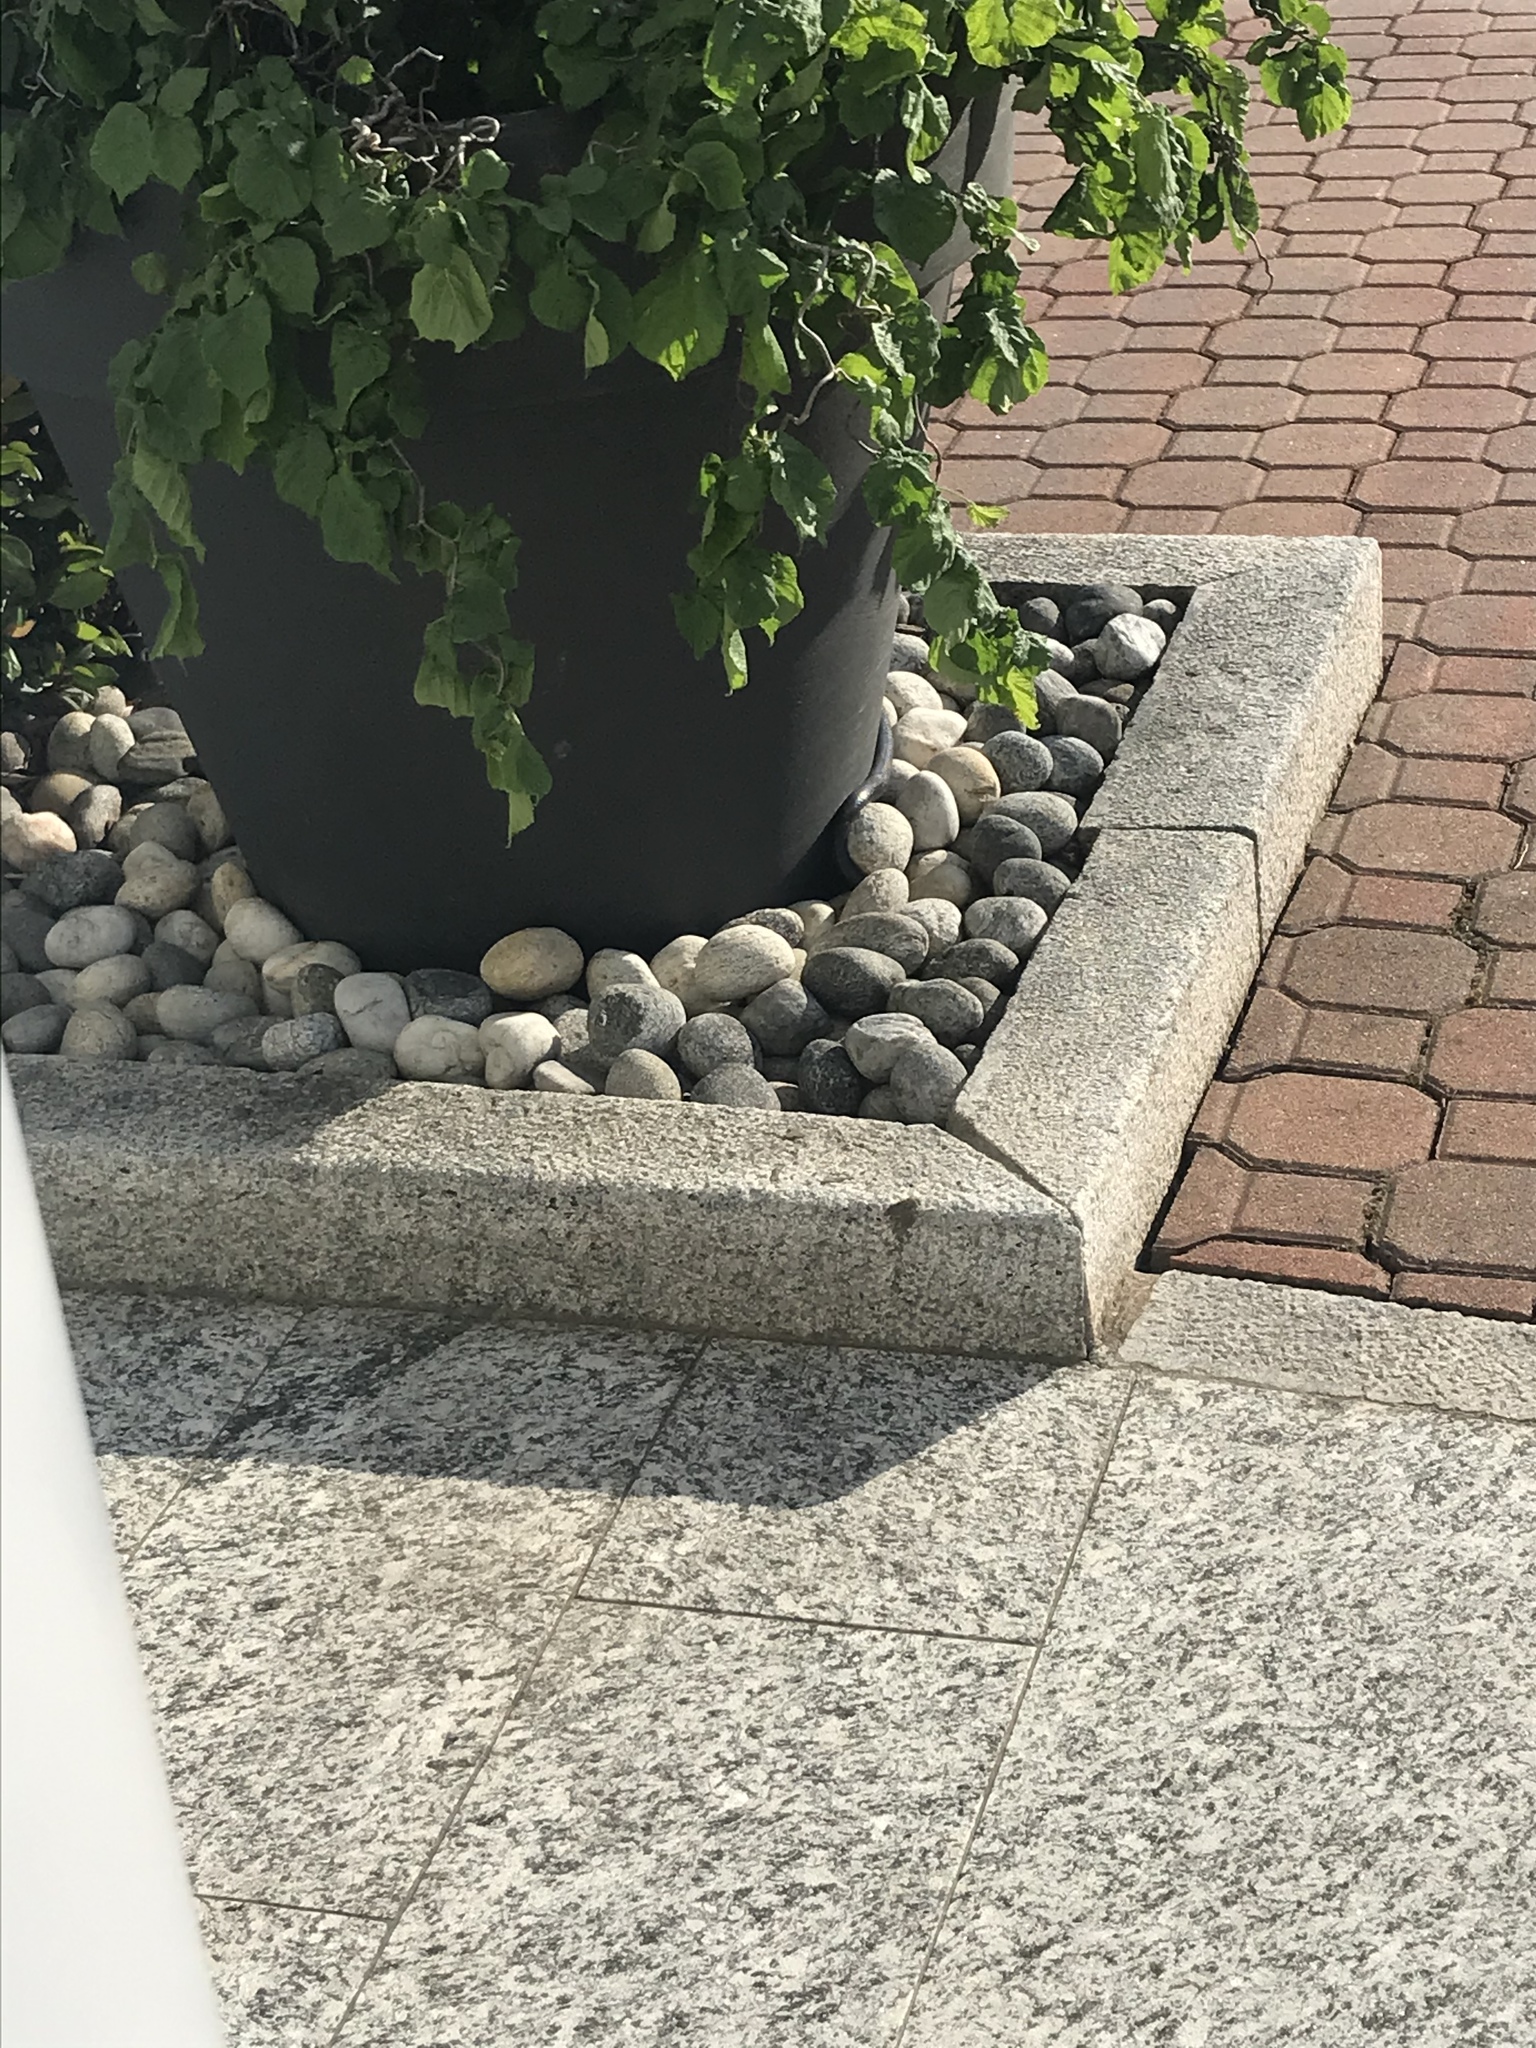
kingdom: Animalia
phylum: Chordata
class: Squamata
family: Colubridae
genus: Hierophis
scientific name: Hierophis viridiflavus
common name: Green whip snake
